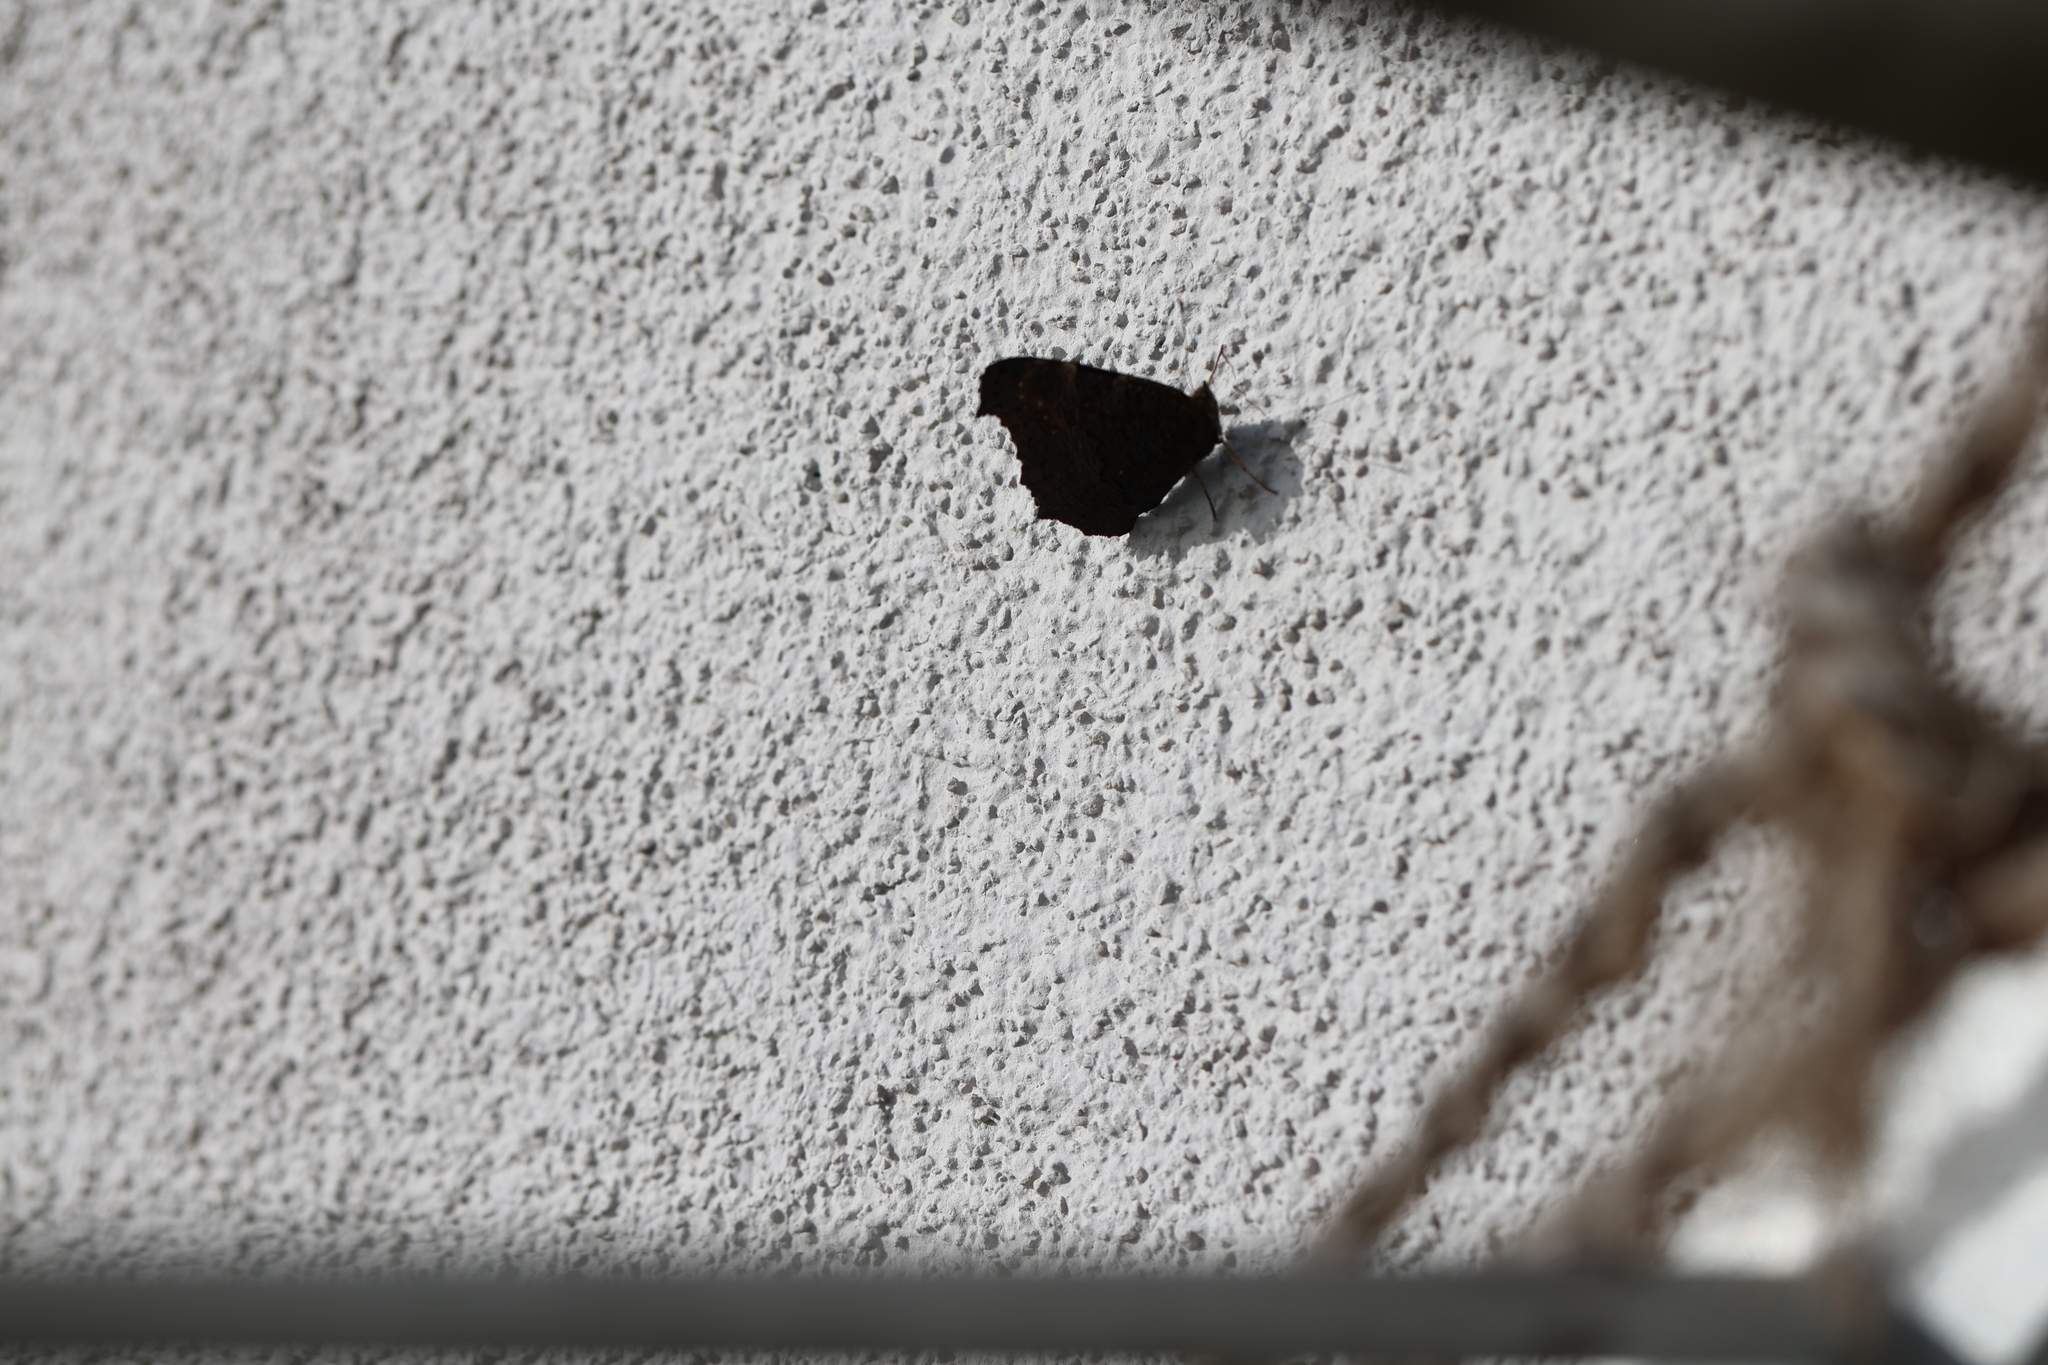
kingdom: Animalia
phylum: Arthropoda
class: Insecta
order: Lepidoptera
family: Nymphalidae
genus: Aglais
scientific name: Aglais io
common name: Peacock
